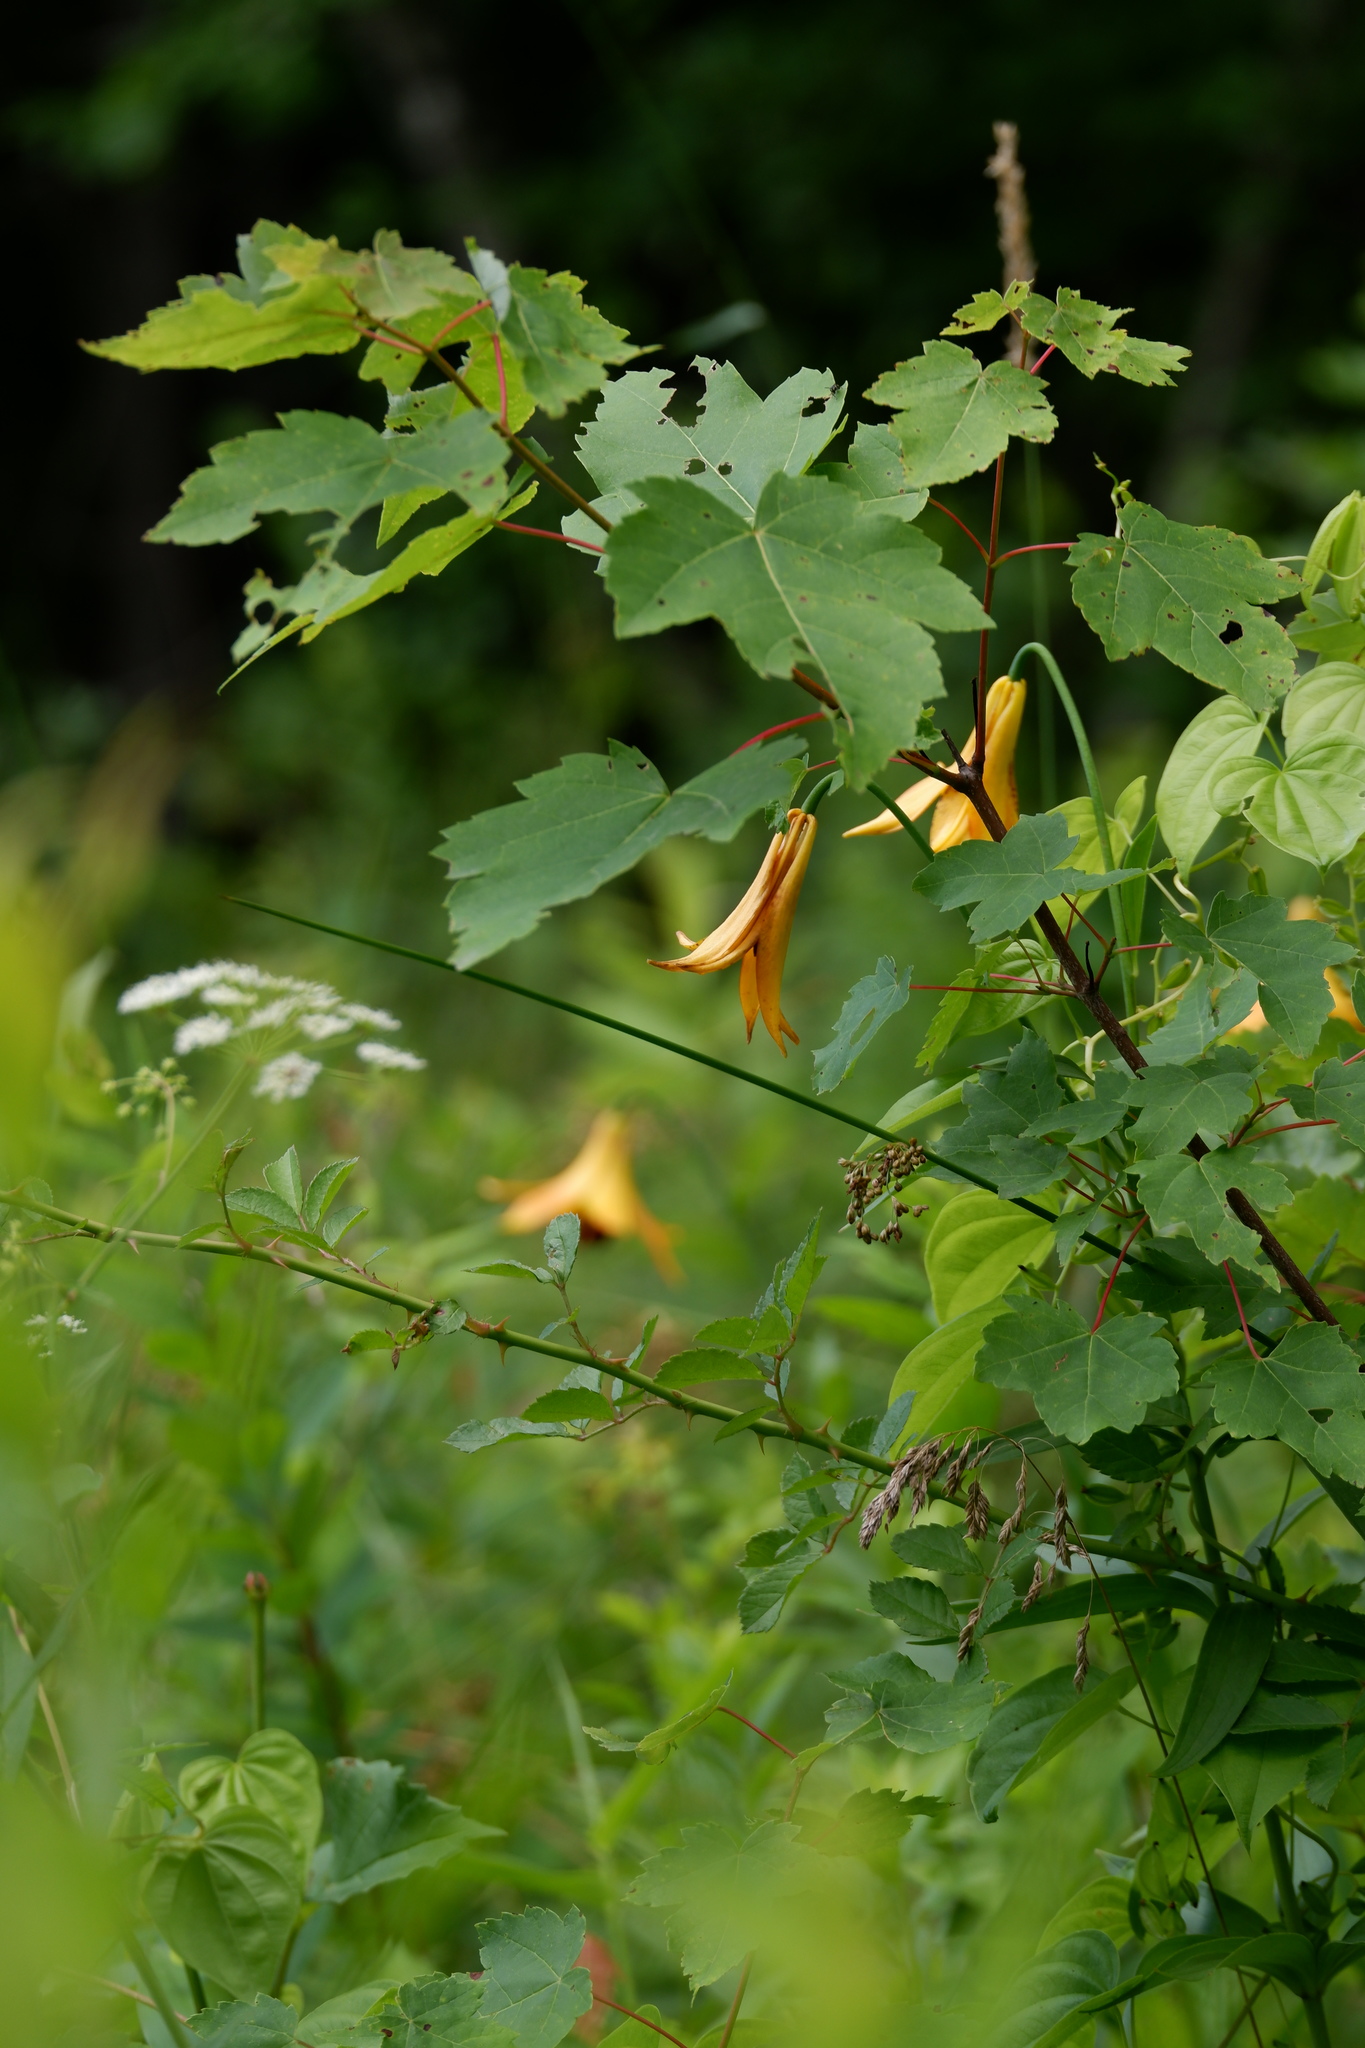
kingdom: Plantae
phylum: Tracheophyta
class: Liliopsida
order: Liliales
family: Liliaceae
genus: Lilium
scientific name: Lilium canadense
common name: Canada lily
